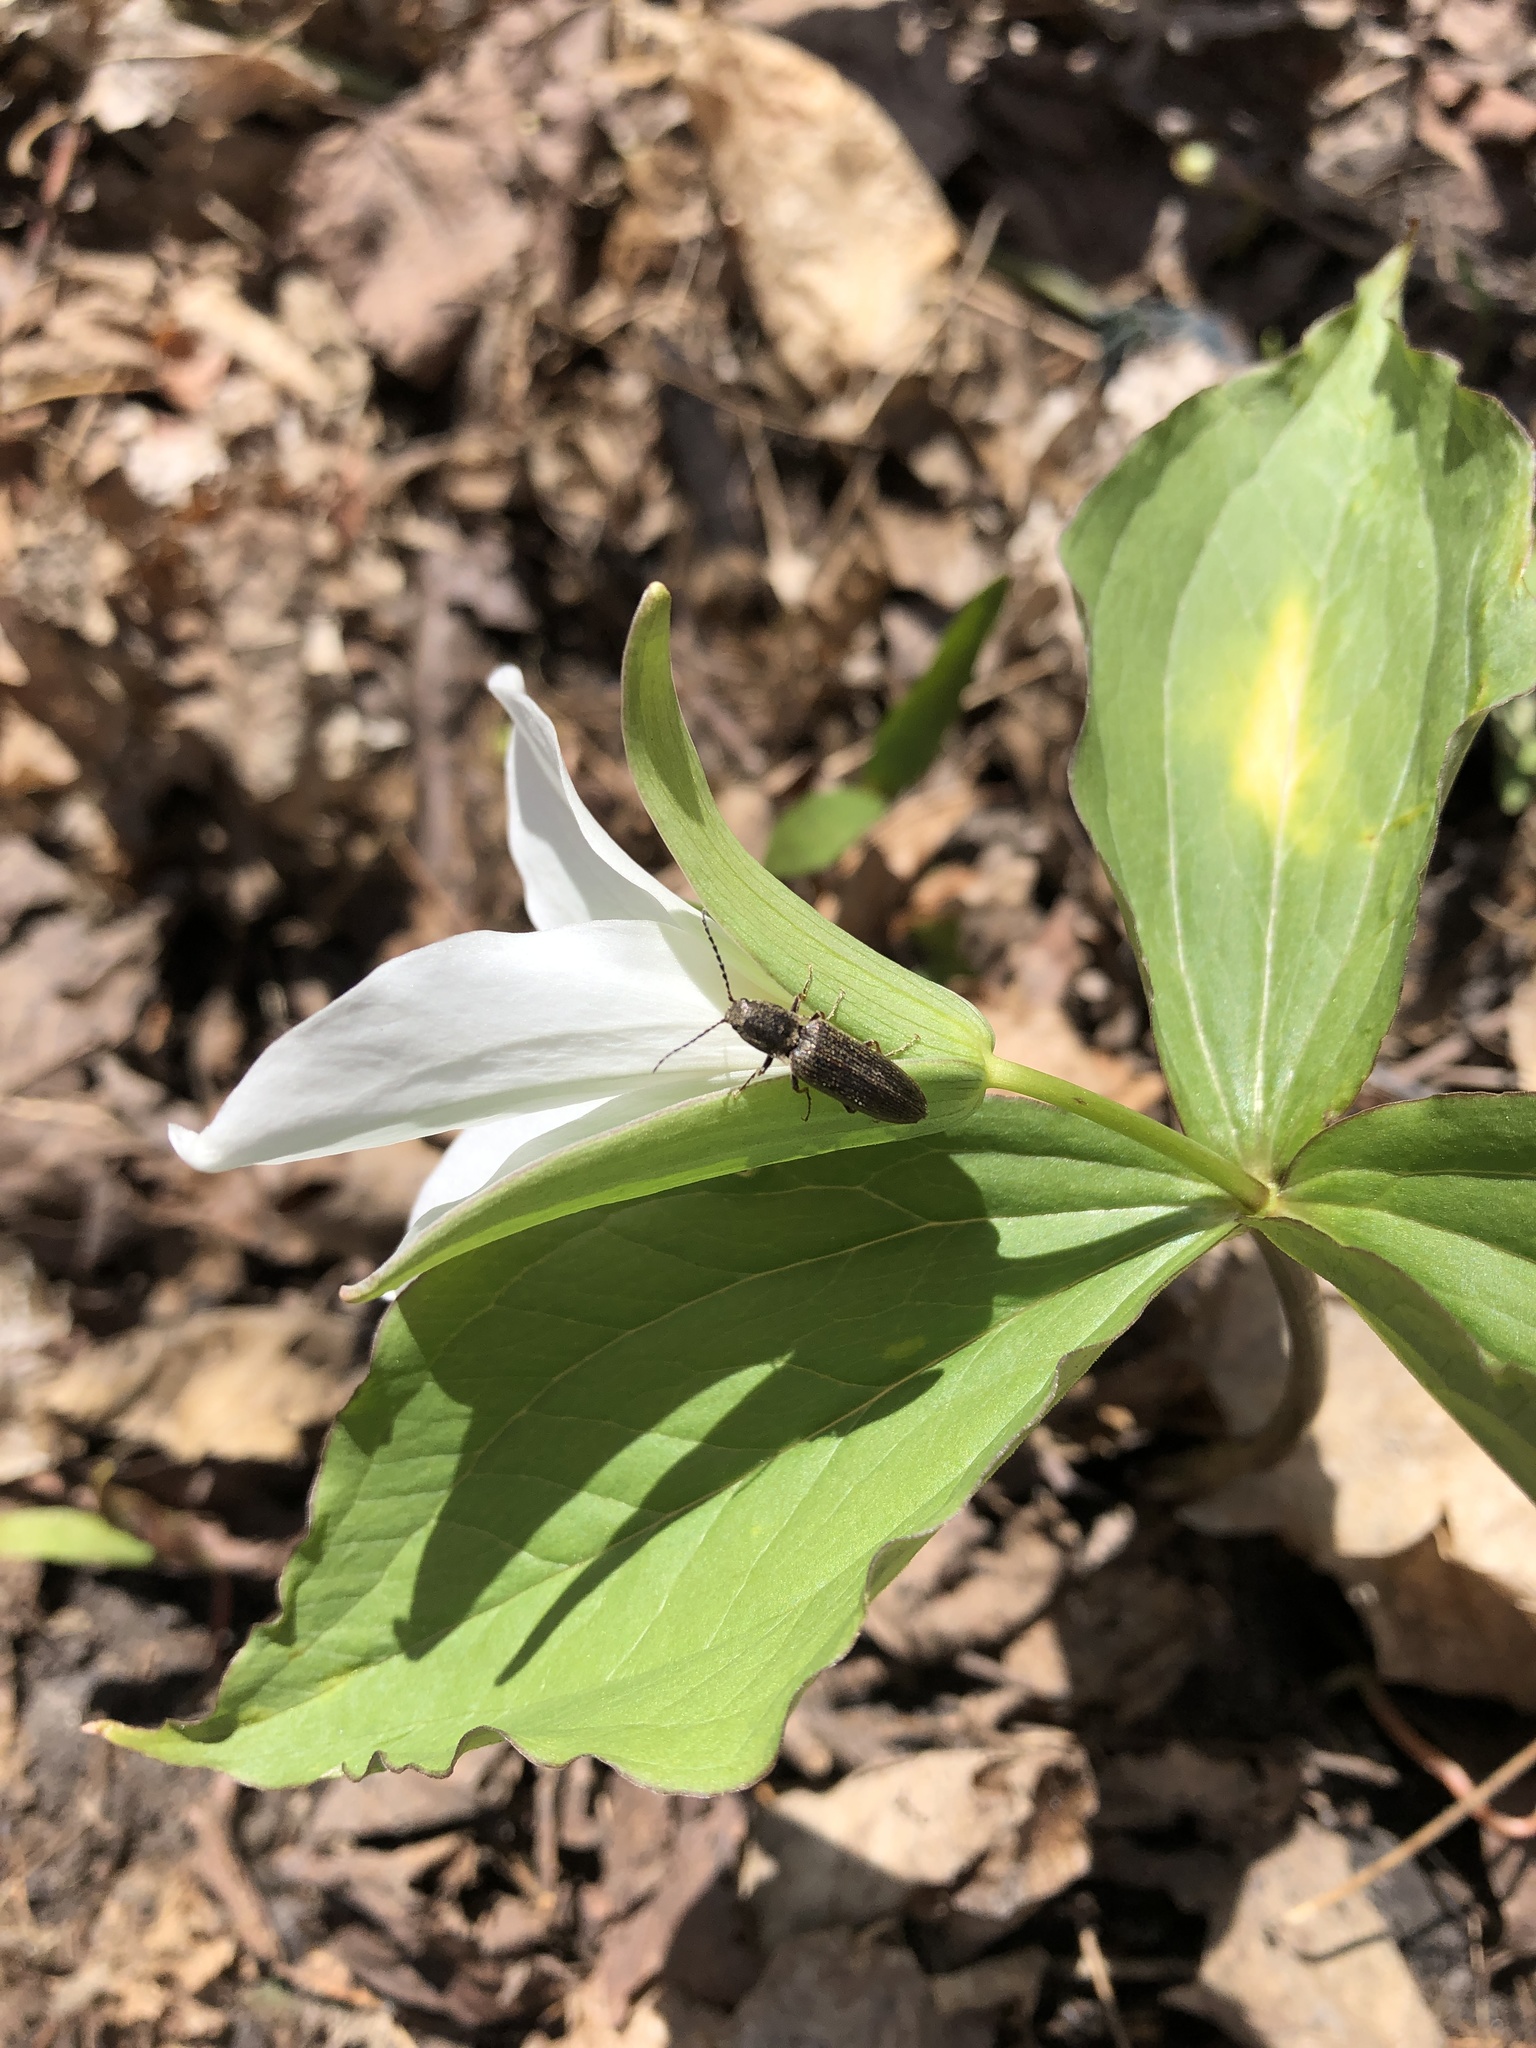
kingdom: Plantae
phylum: Tracheophyta
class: Liliopsida
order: Liliales
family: Melanthiaceae
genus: Trillium
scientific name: Trillium grandiflorum
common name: Great white trillium
